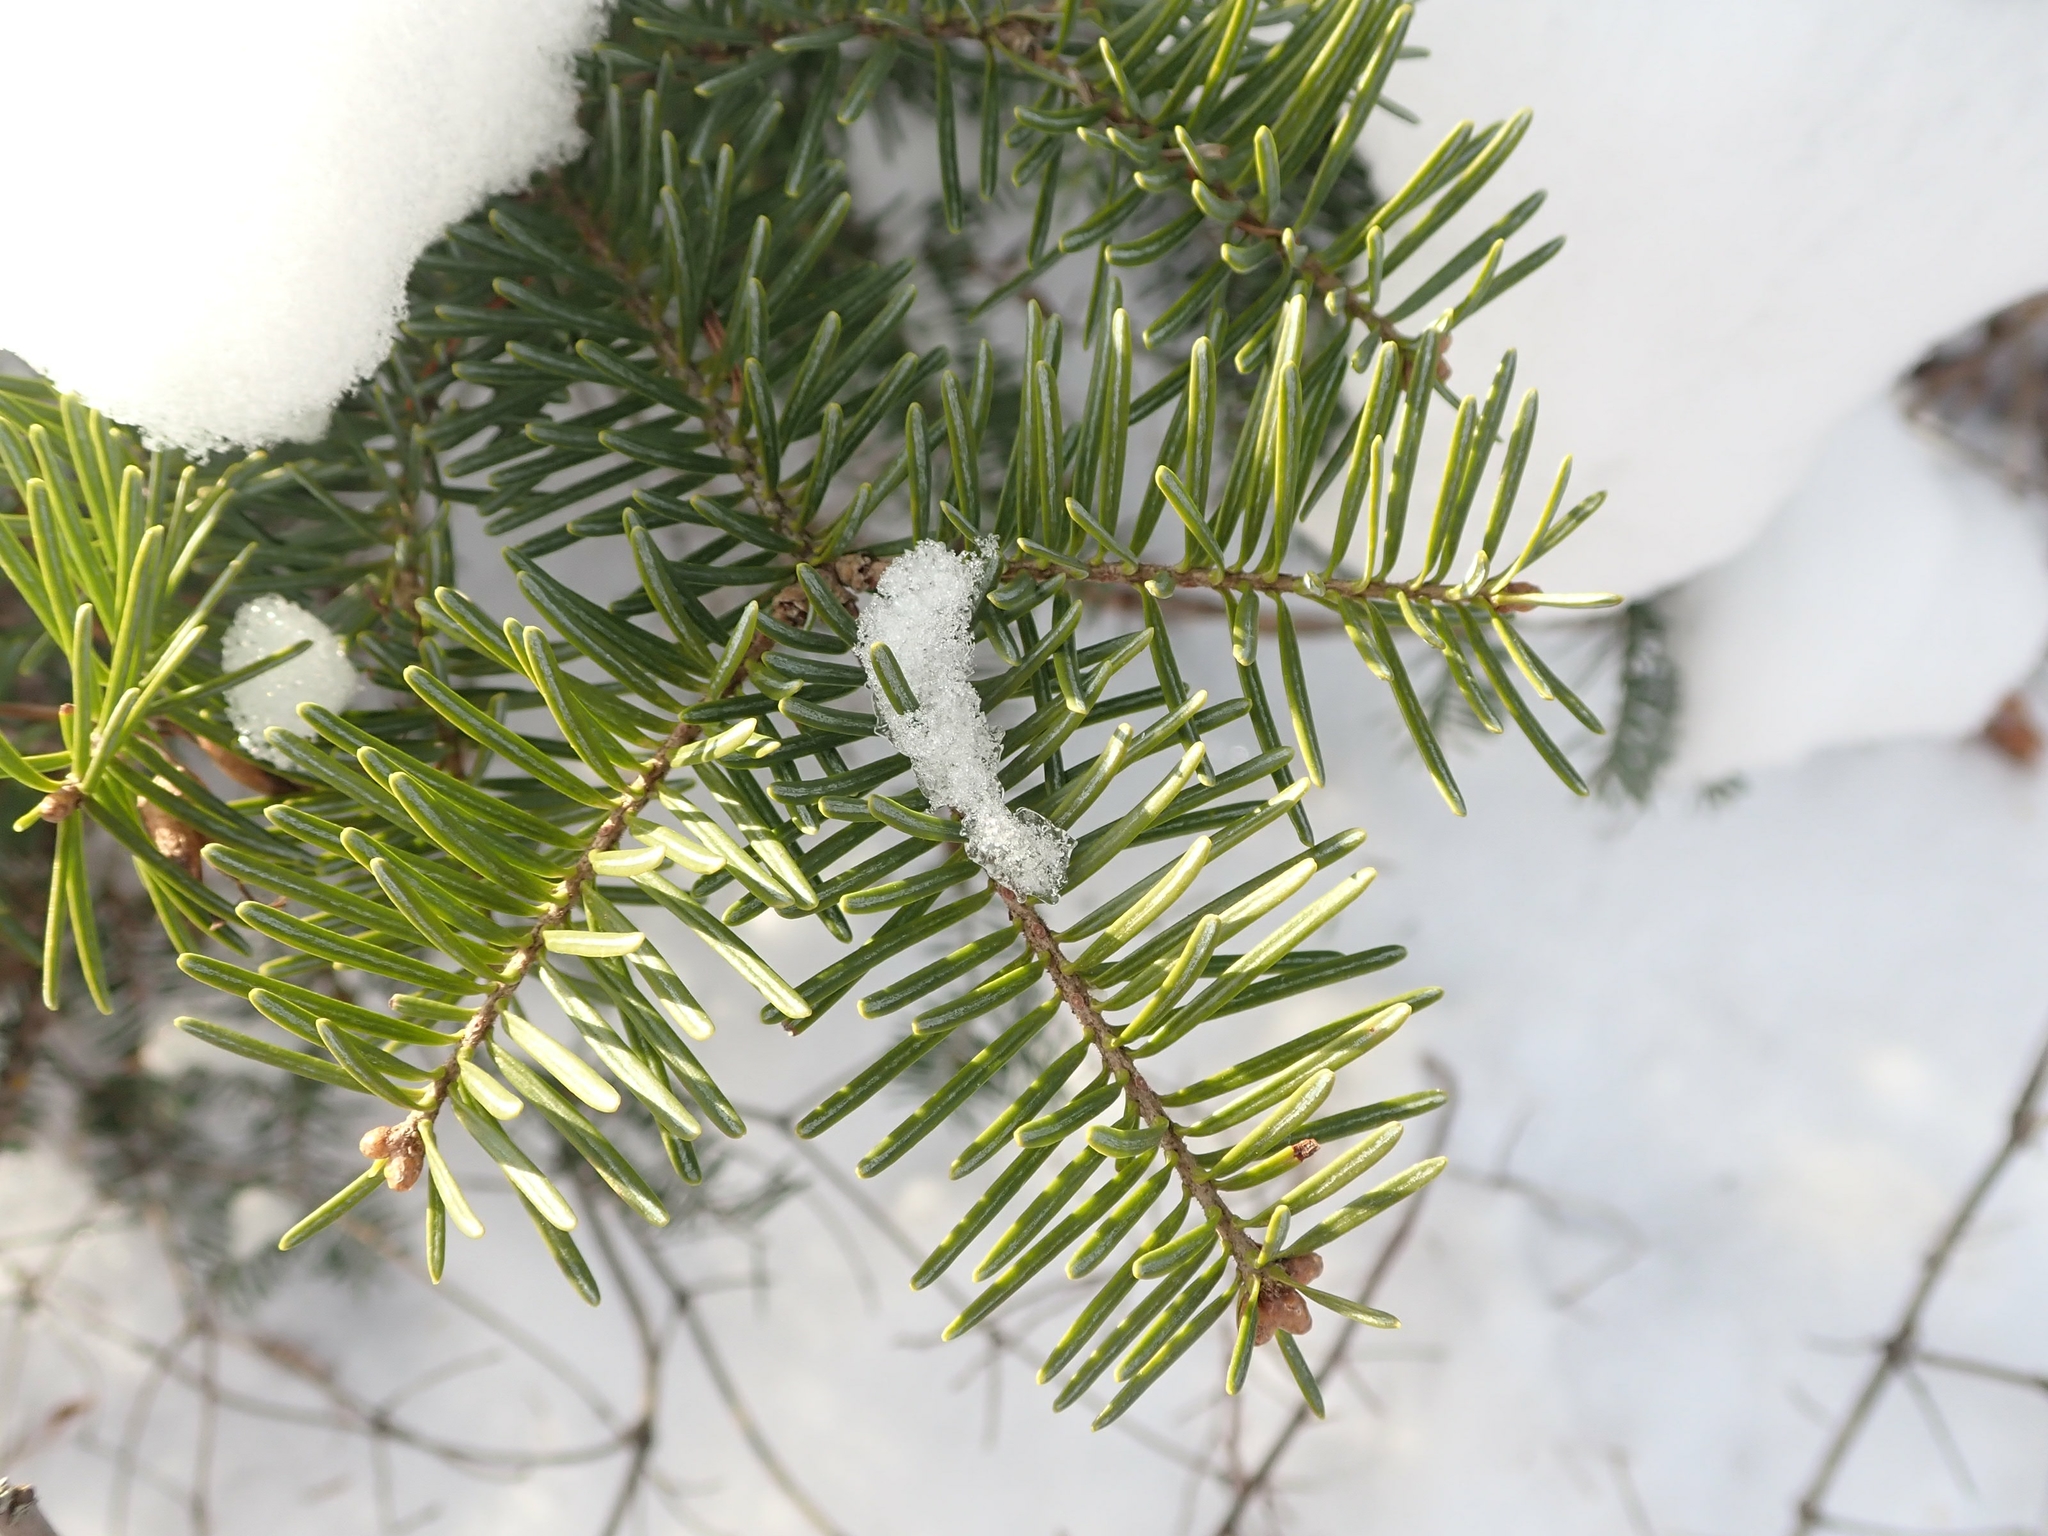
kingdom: Plantae
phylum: Tracheophyta
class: Pinopsida
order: Pinales
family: Pinaceae
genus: Abies
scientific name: Abies balsamea
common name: Balsam fir
